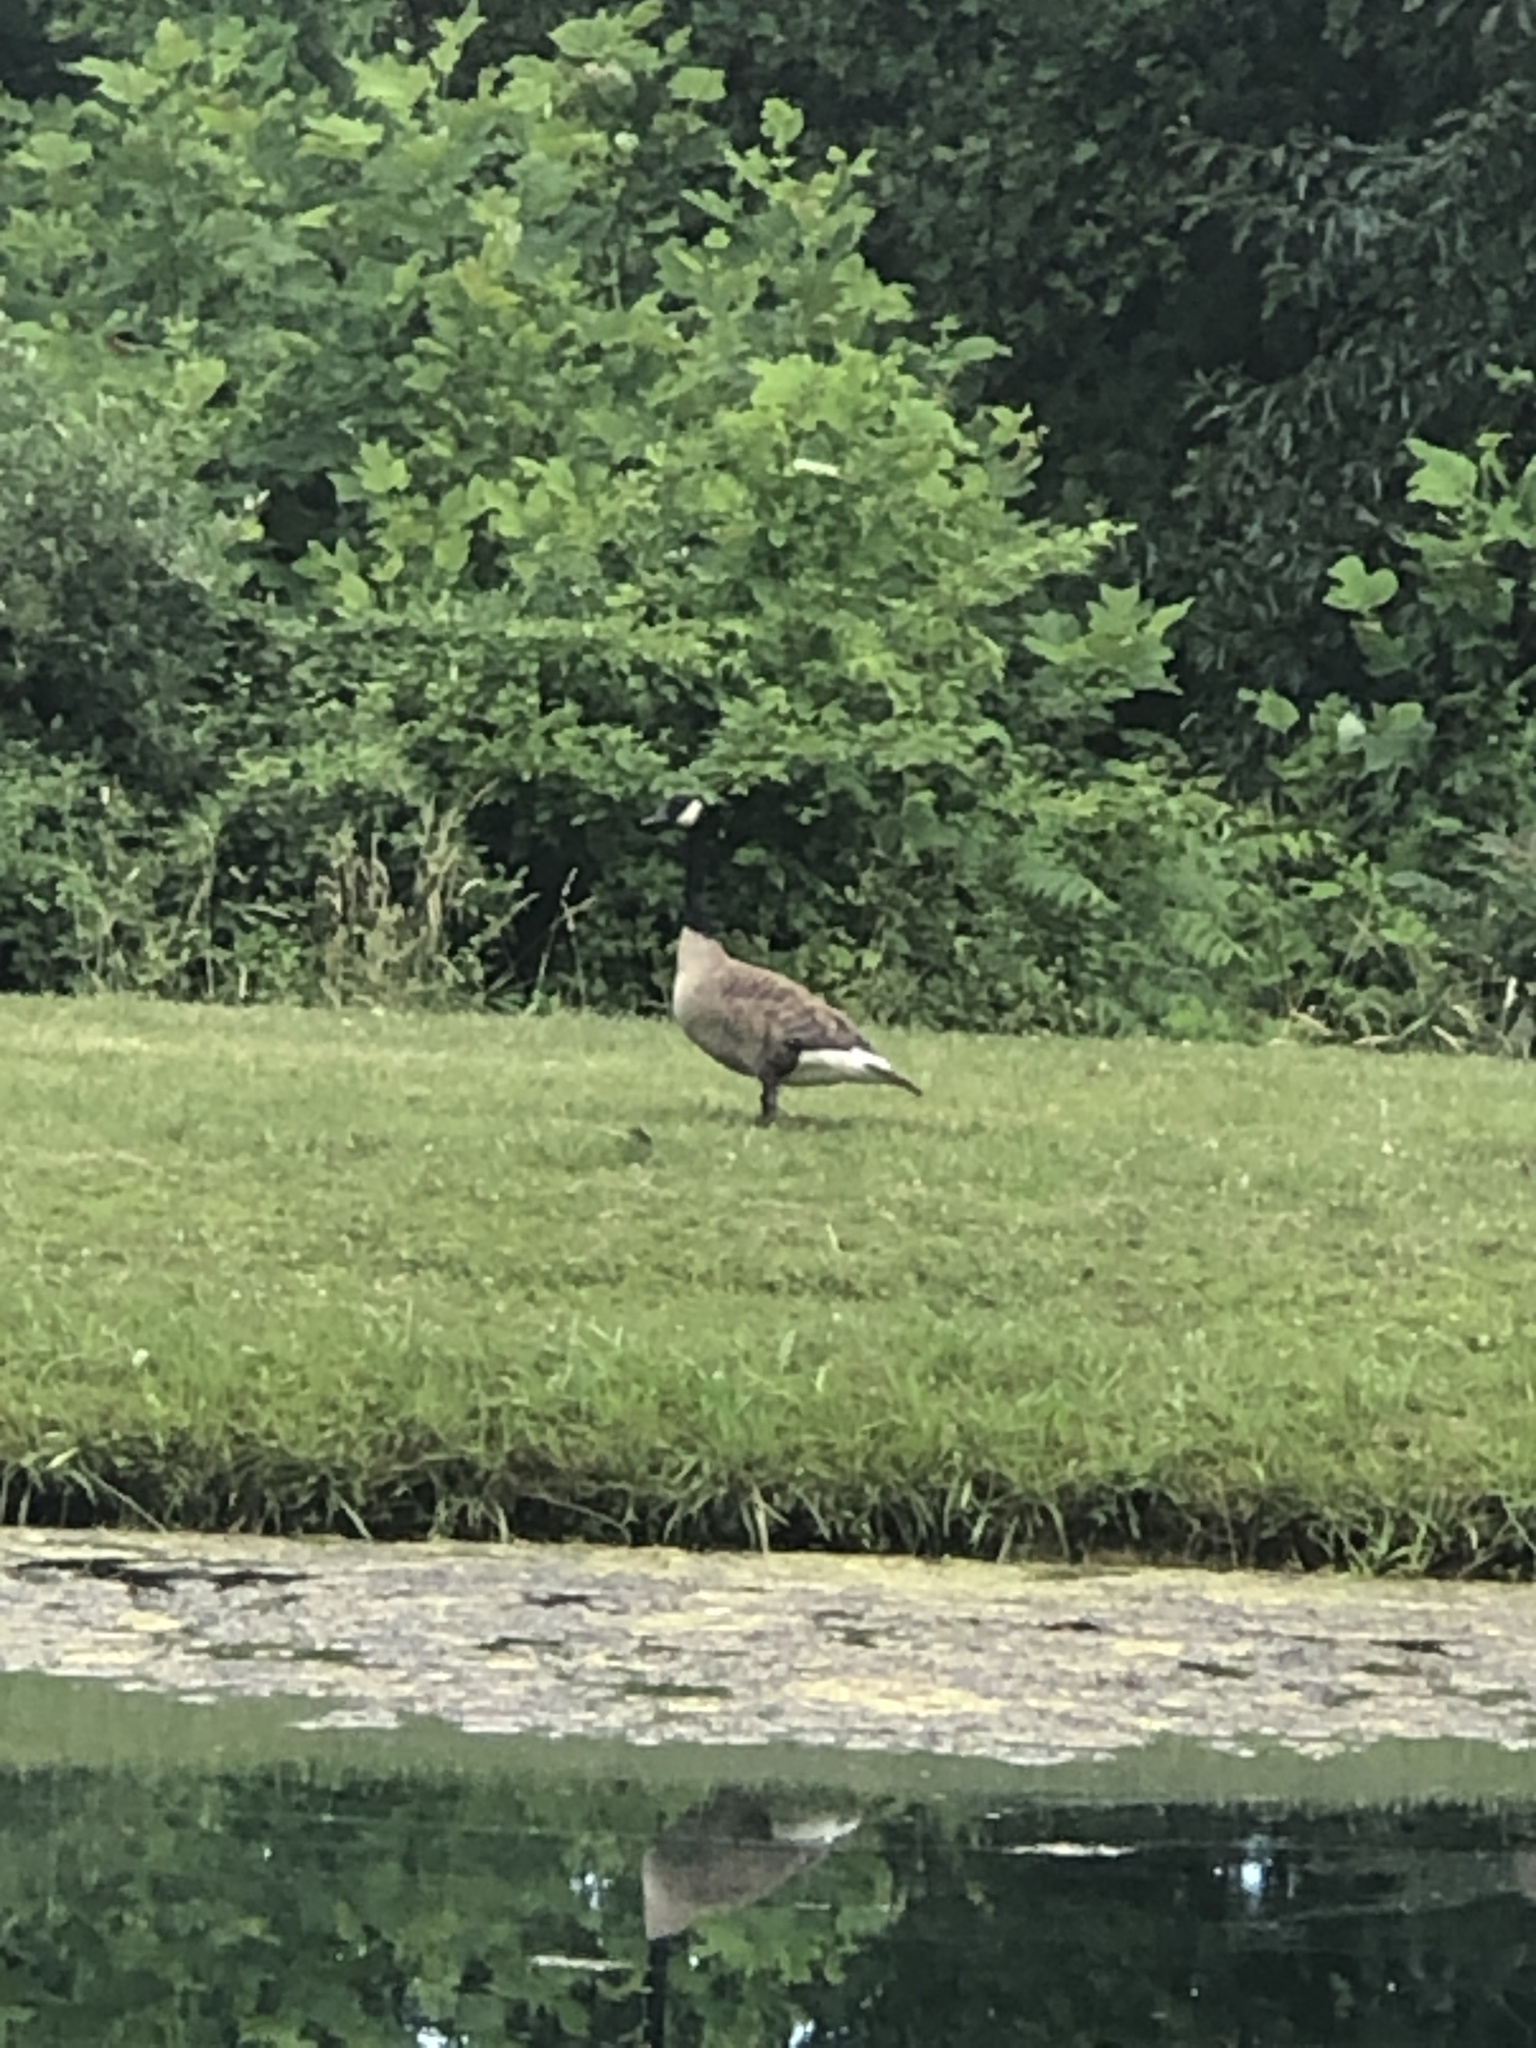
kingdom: Animalia
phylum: Chordata
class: Aves
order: Anseriformes
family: Anatidae
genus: Branta
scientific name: Branta canadensis
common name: Canada goose
